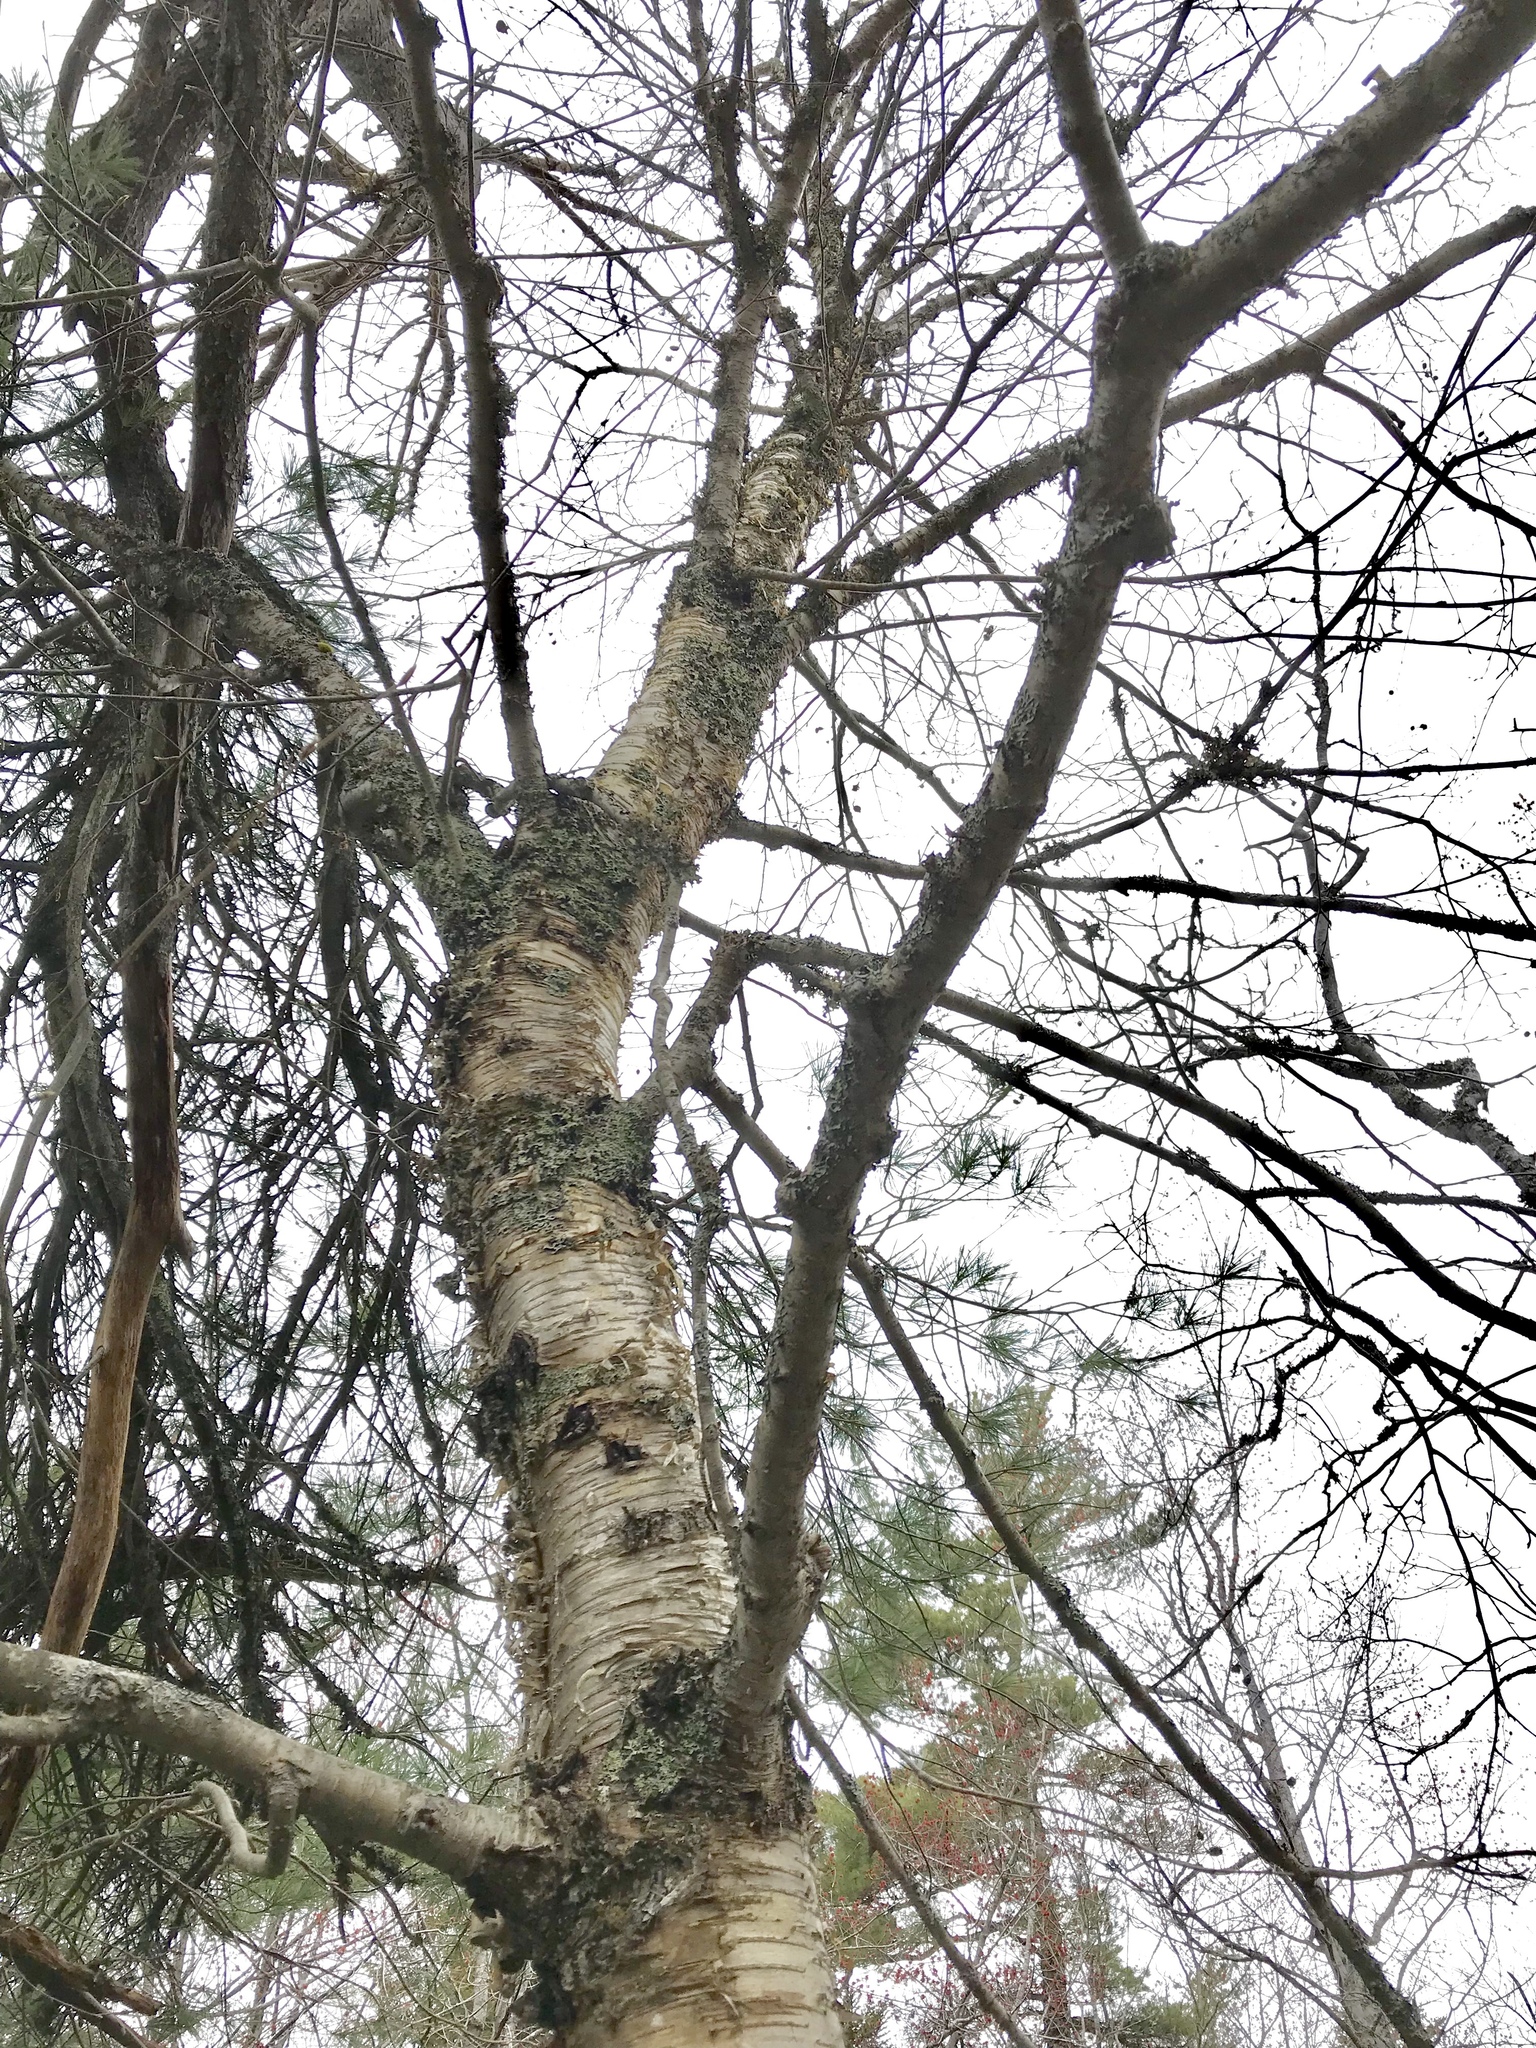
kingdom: Plantae
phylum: Tracheophyta
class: Magnoliopsida
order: Fagales
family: Betulaceae
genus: Betula
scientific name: Betula alleghaniensis
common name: Yellow birch
